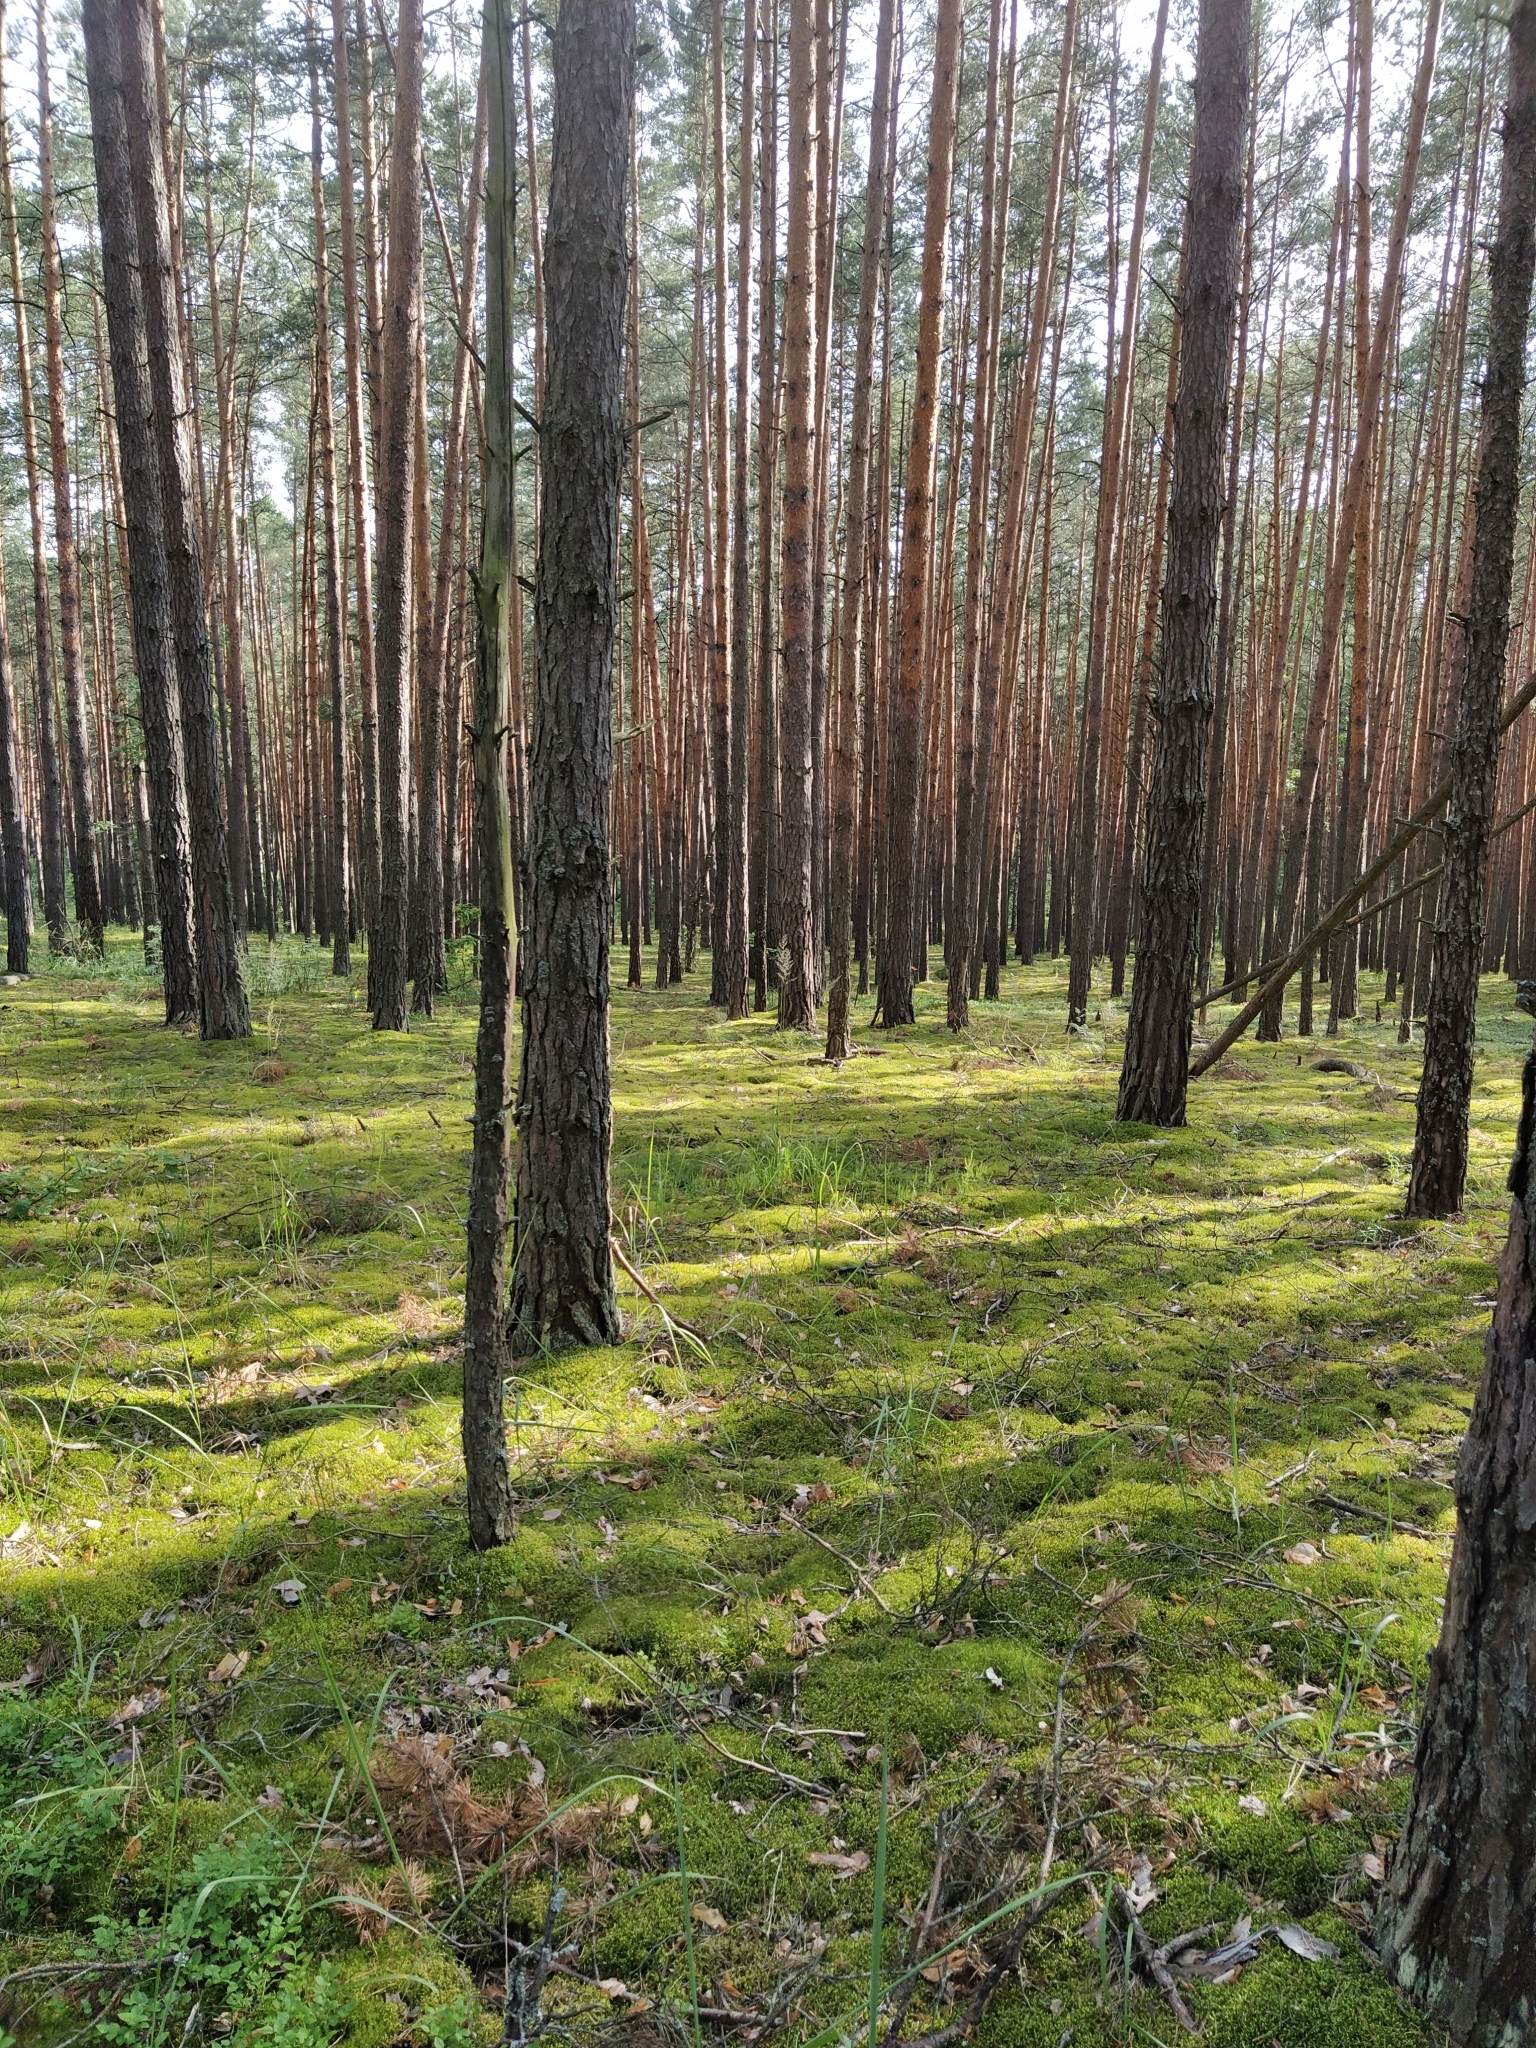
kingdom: Plantae
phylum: Tracheophyta
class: Pinopsida
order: Pinales
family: Pinaceae
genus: Pinus
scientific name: Pinus sylvestris
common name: Scots pine
